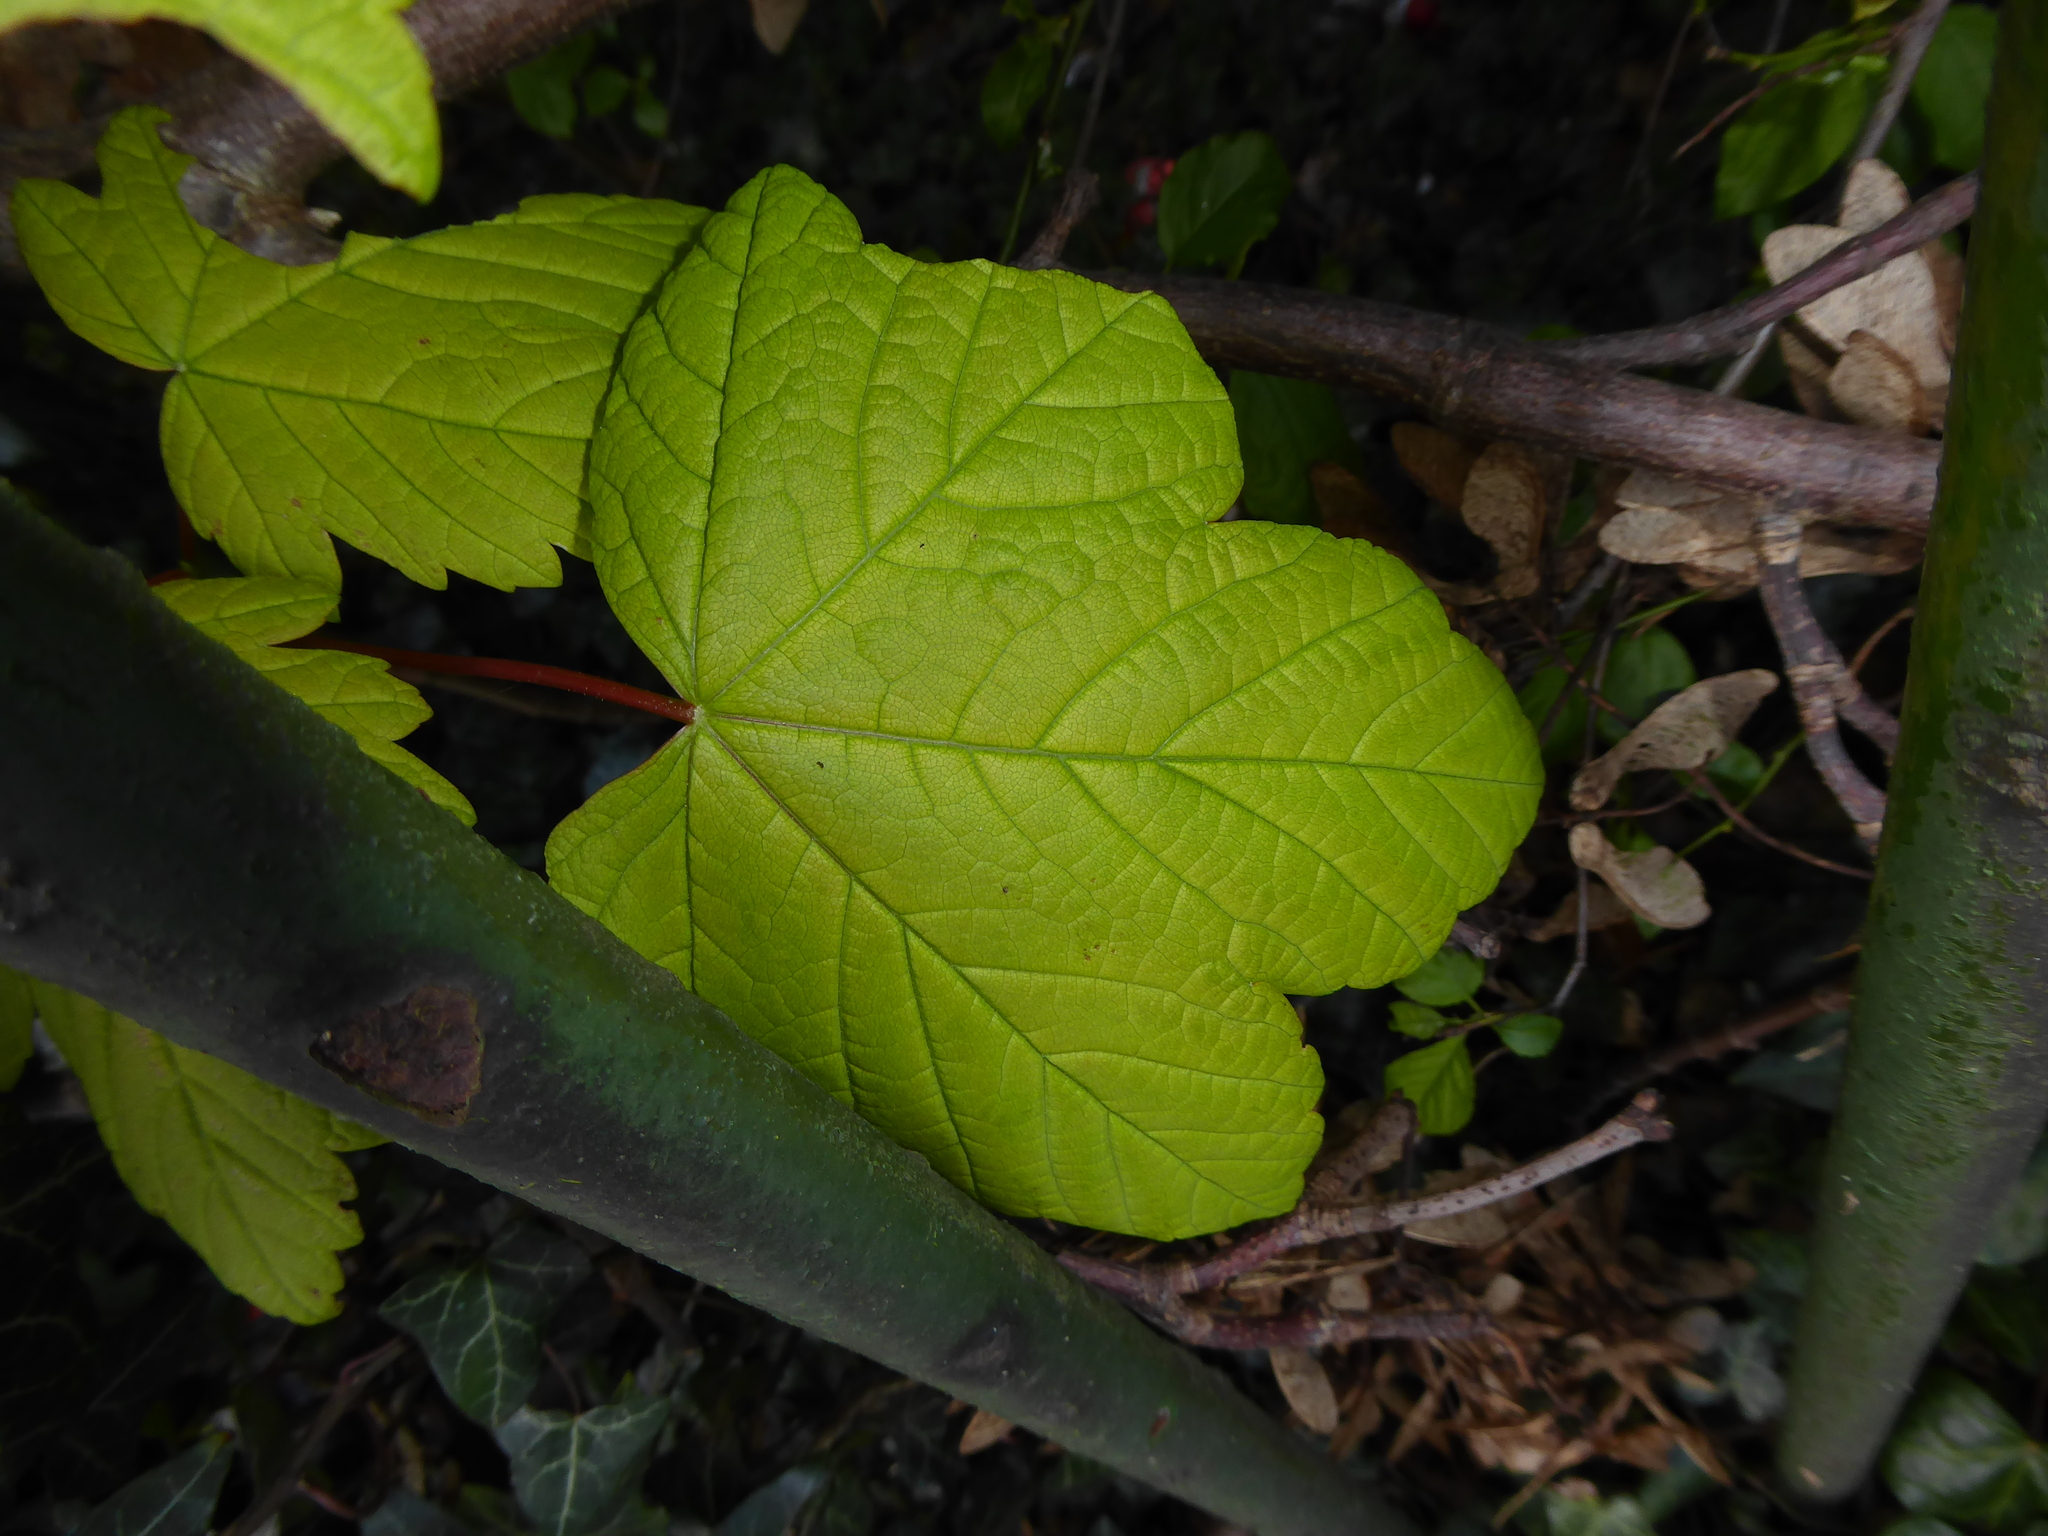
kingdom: Plantae
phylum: Tracheophyta
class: Magnoliopsida
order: Sapindales
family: Sapindaceae
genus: Acer
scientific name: Acer pseudoplatanus
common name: Sycamore
